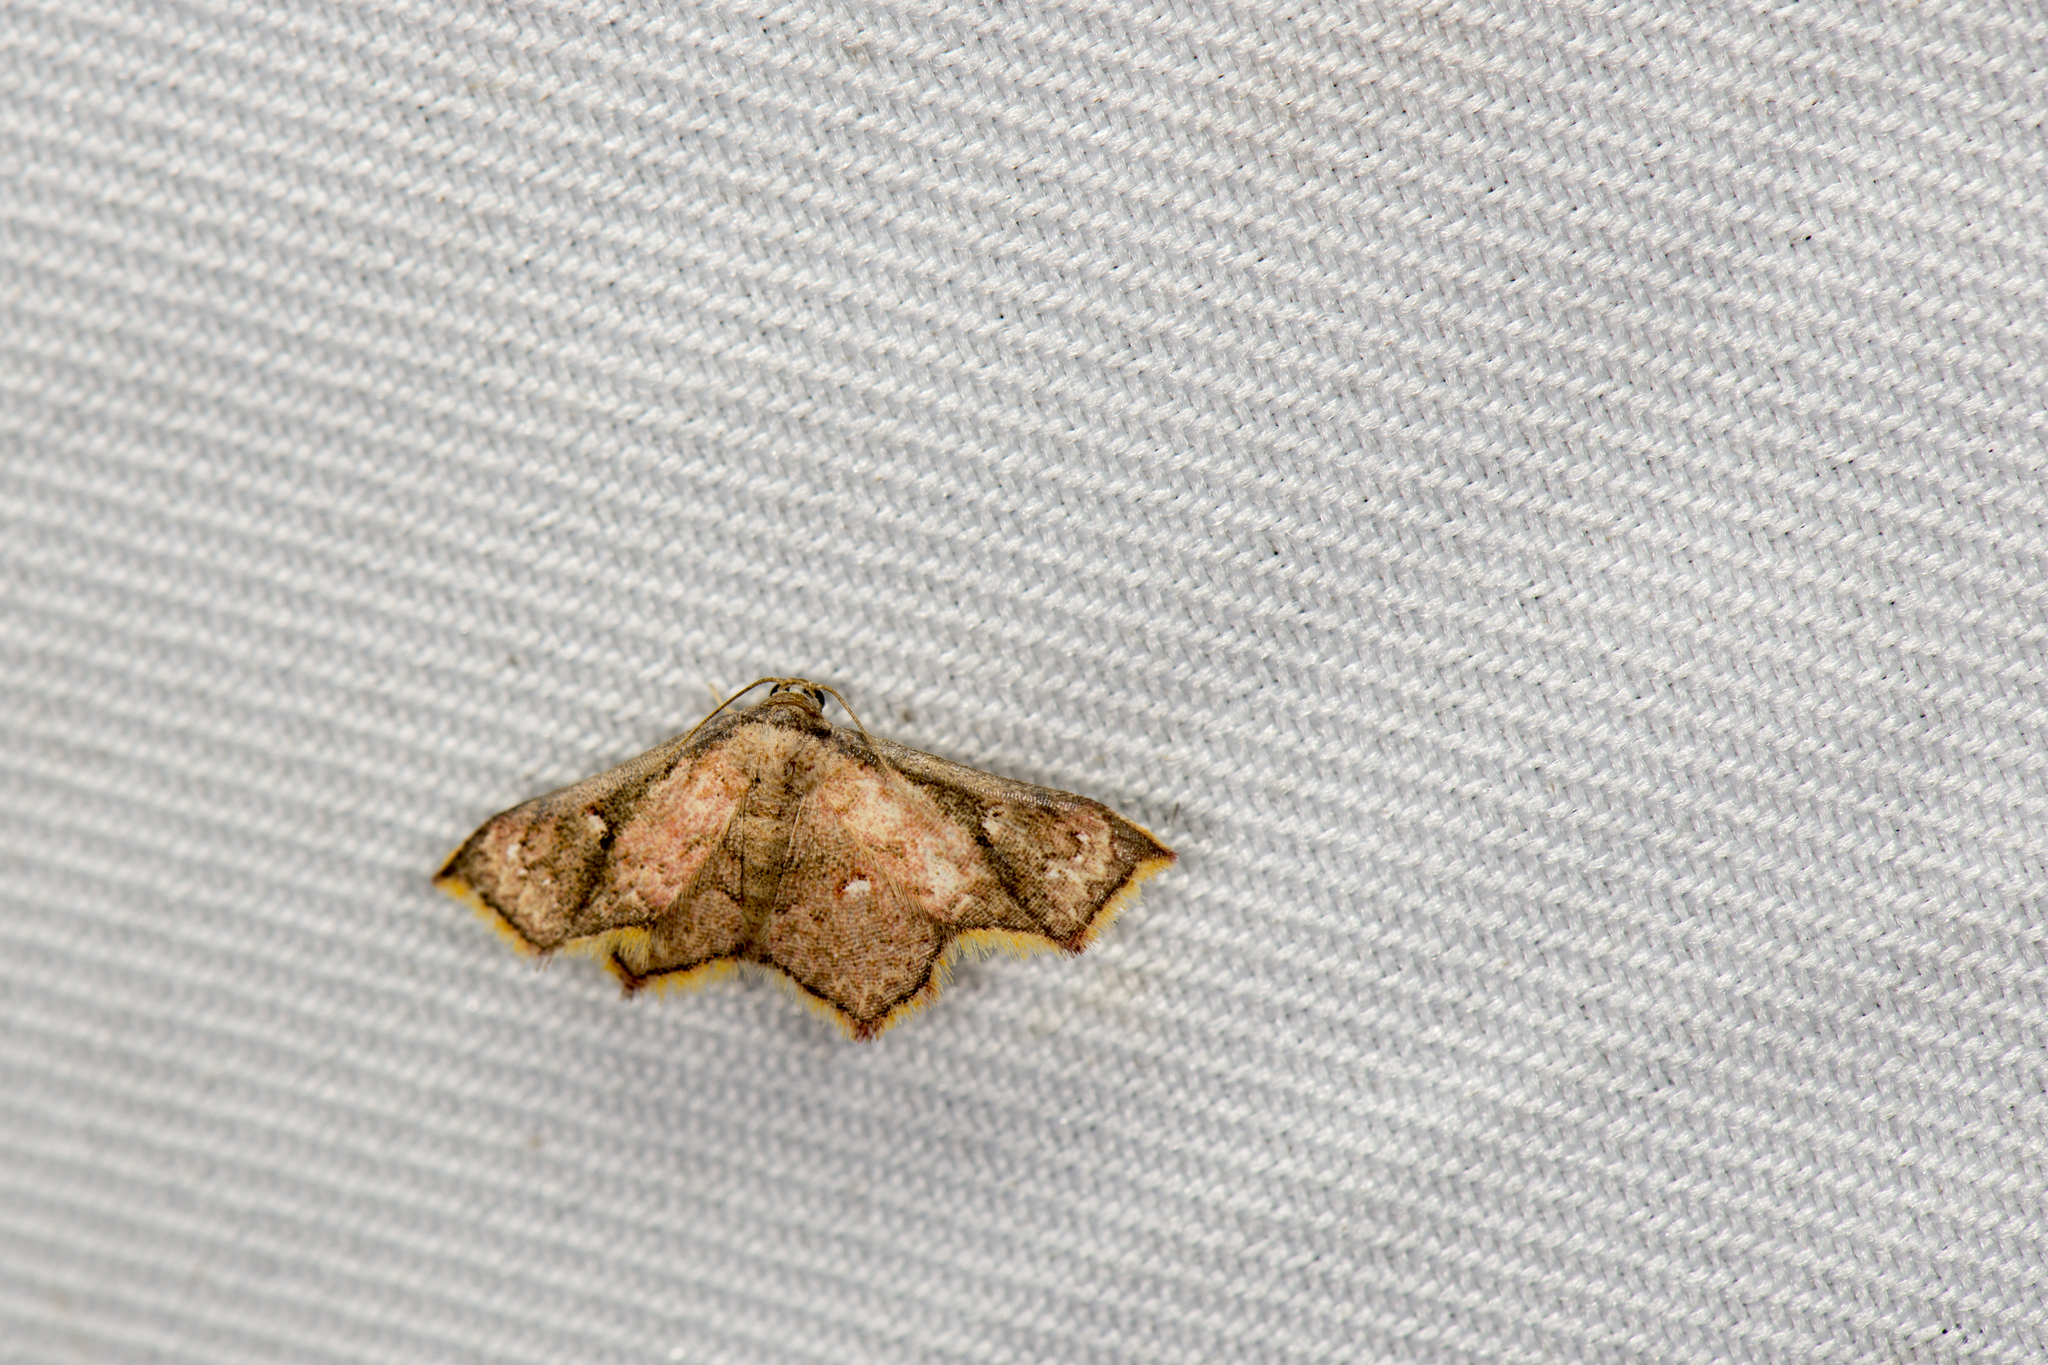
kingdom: Animalia
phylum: Arthropoda
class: Insecta
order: Lepidoptera
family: Noctuidae
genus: Enispa
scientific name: Enispa elataria
